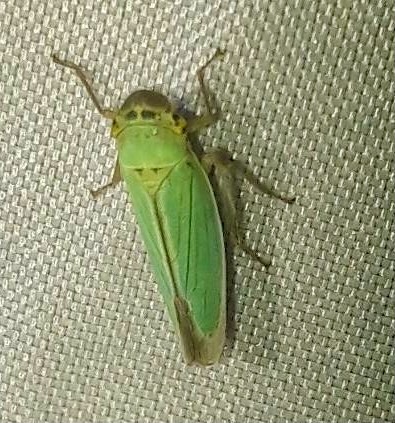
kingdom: Animalia
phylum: Arthropoda
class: Insecta
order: Hemiptera
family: Cicadellidae
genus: Cicadella
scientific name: Cicadella viridis
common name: Leafhopper
